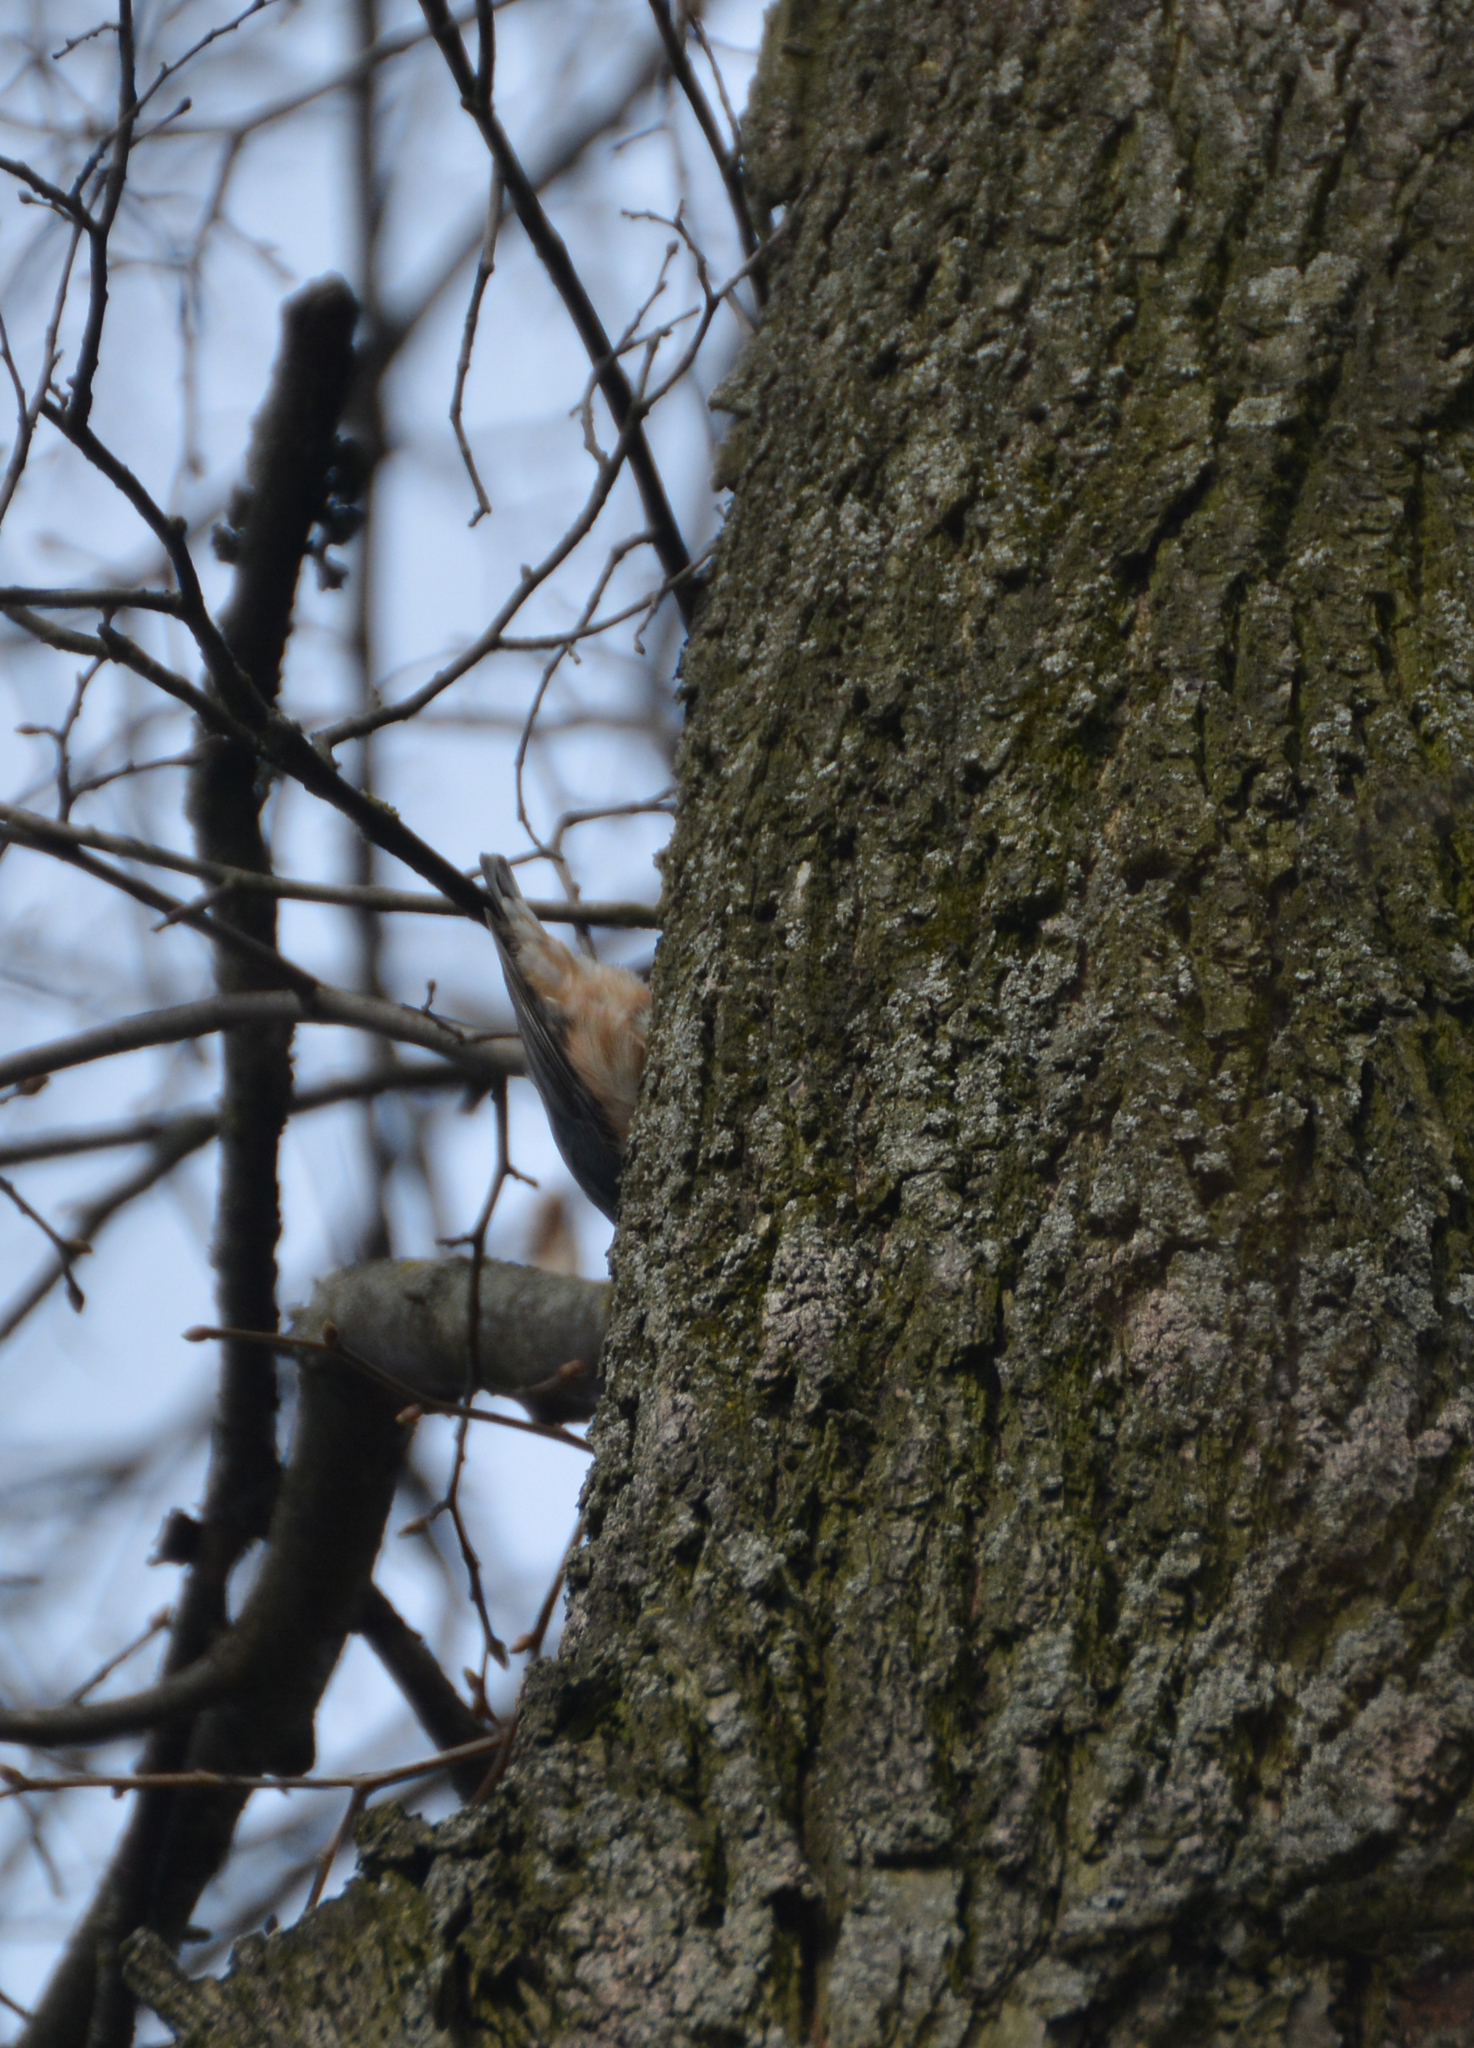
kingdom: Animalia
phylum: Chordata
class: Aves
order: Passeriformes
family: Sittidae
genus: Sitta
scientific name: Sitta europaea
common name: Eurasian nuthatch
